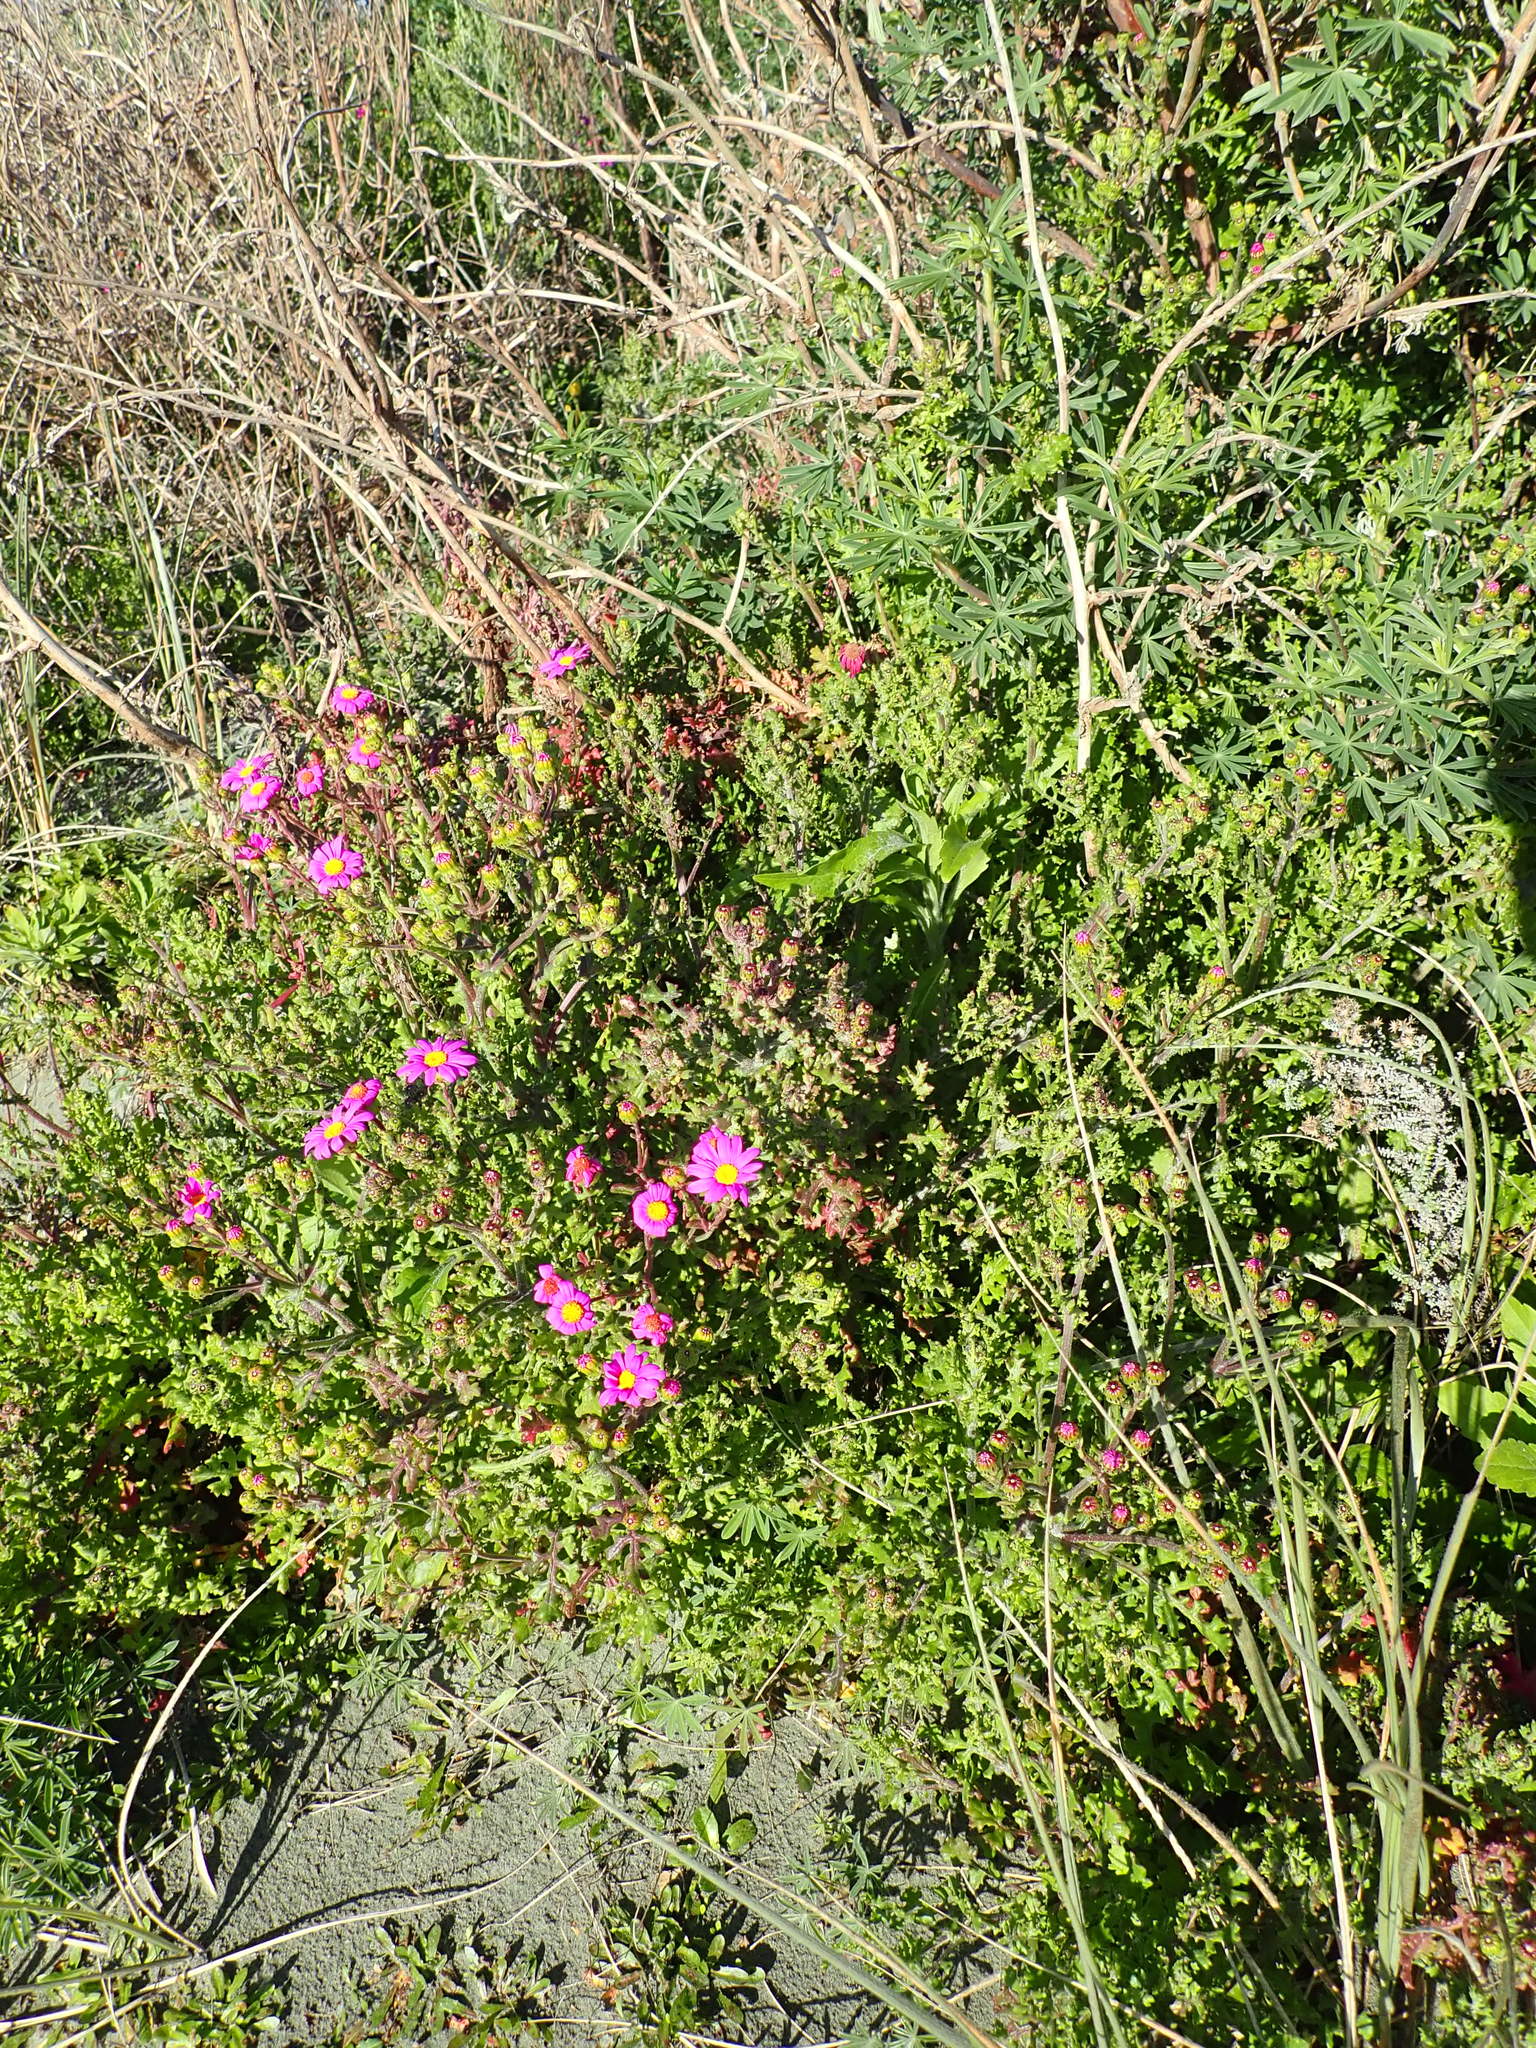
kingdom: Plantae
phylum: Tracheophyta
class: Magnoliopsida
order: Asterales
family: Asteraceae
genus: Senecio
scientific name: Senecio elegans
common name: Purple groundsel
